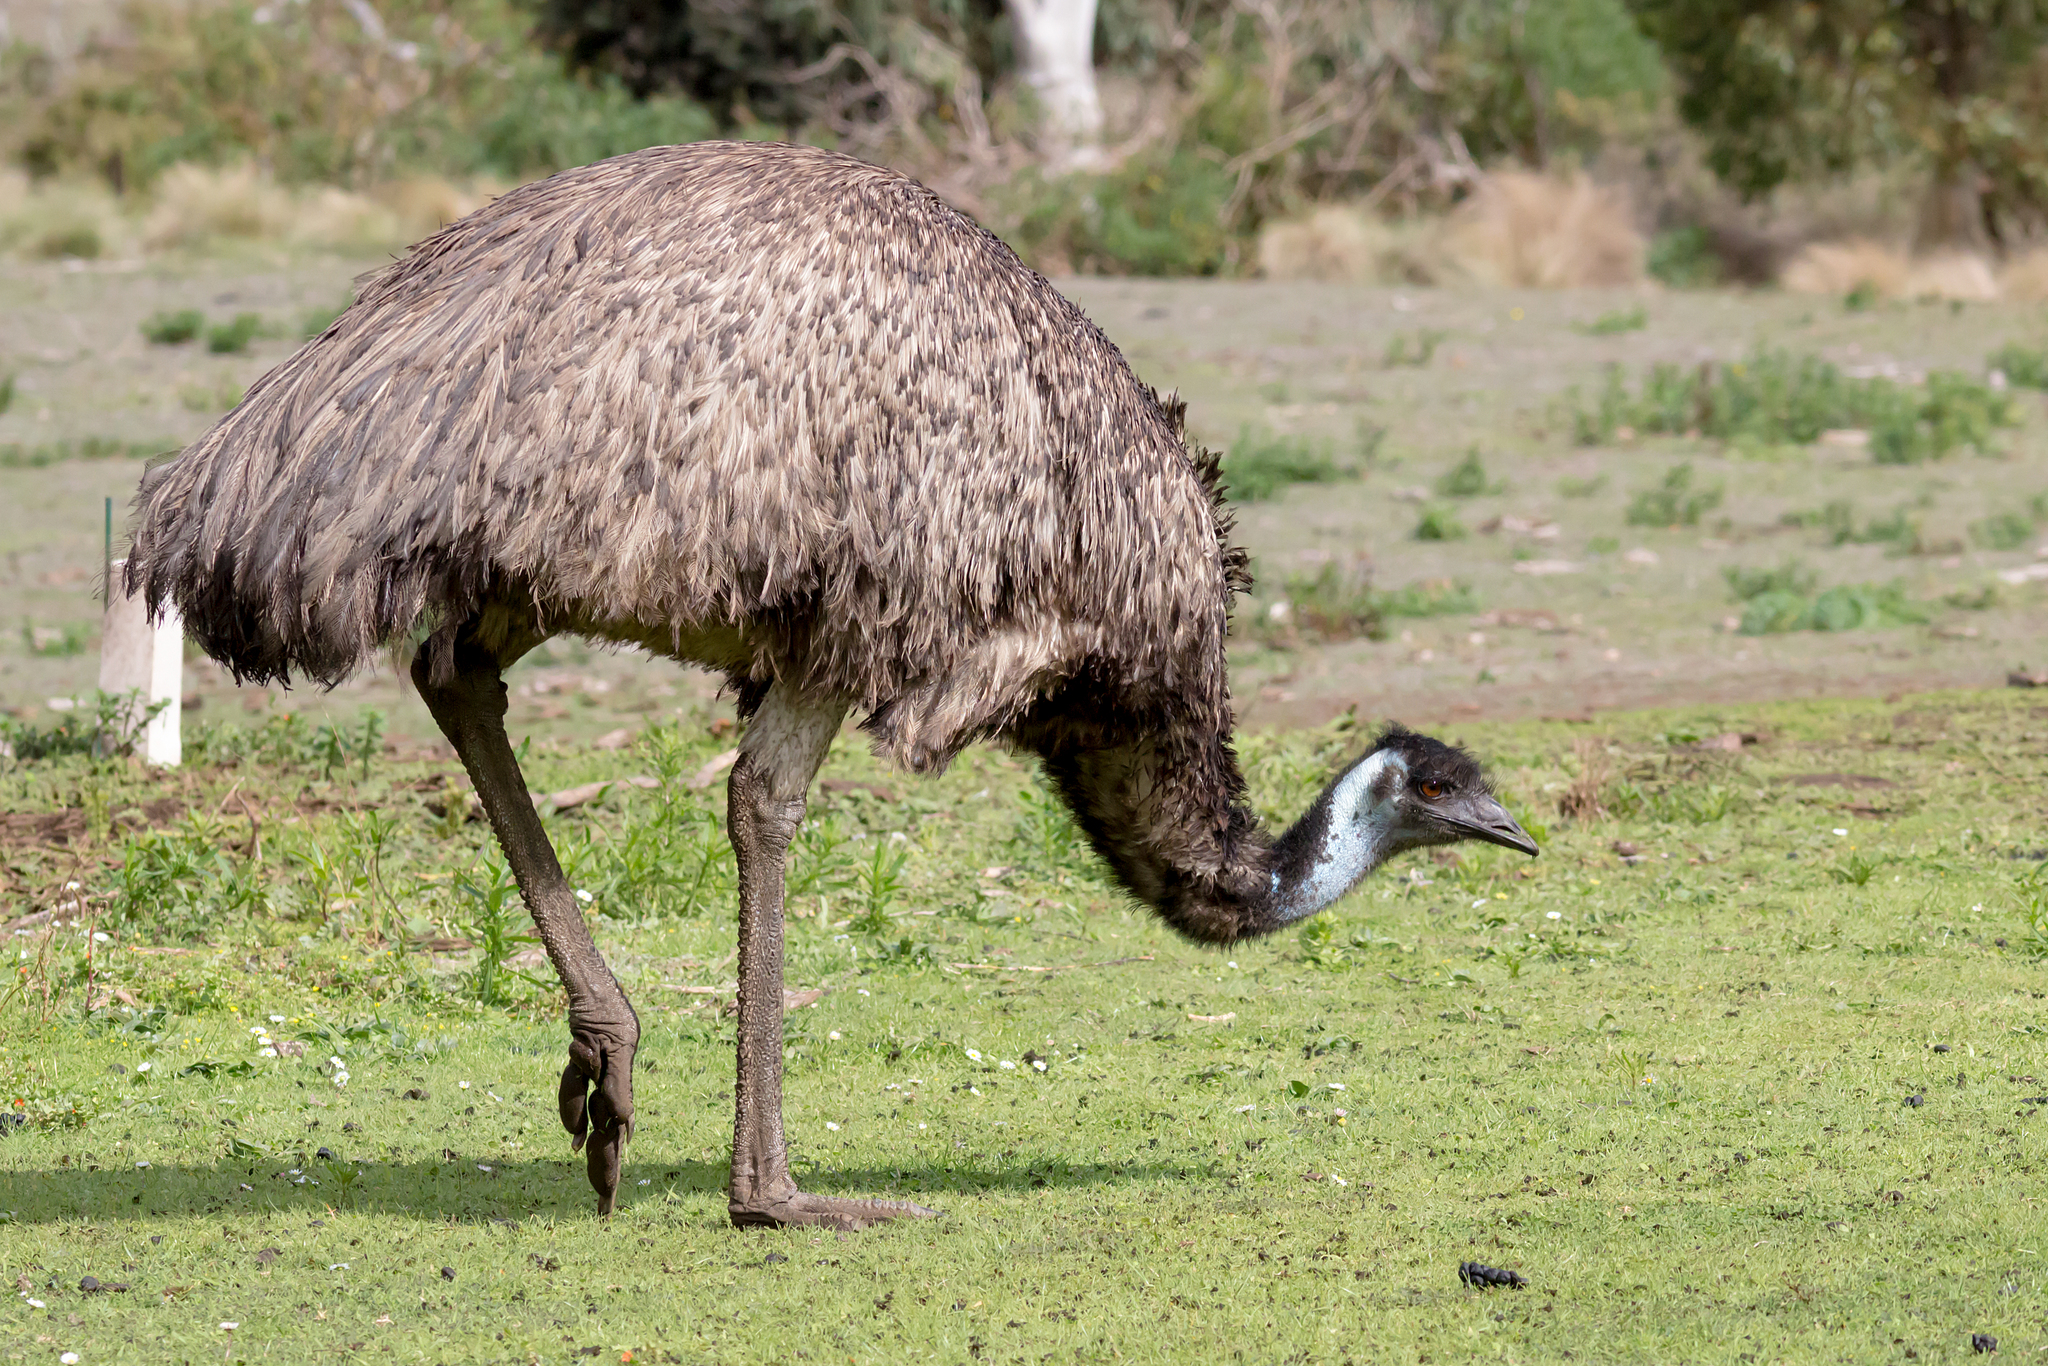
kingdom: Animalia
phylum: Chordata
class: Aves
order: Casuariiformes
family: Dromaiidae
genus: Dromaius
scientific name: Dromaius novaehollandiae
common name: Emu
